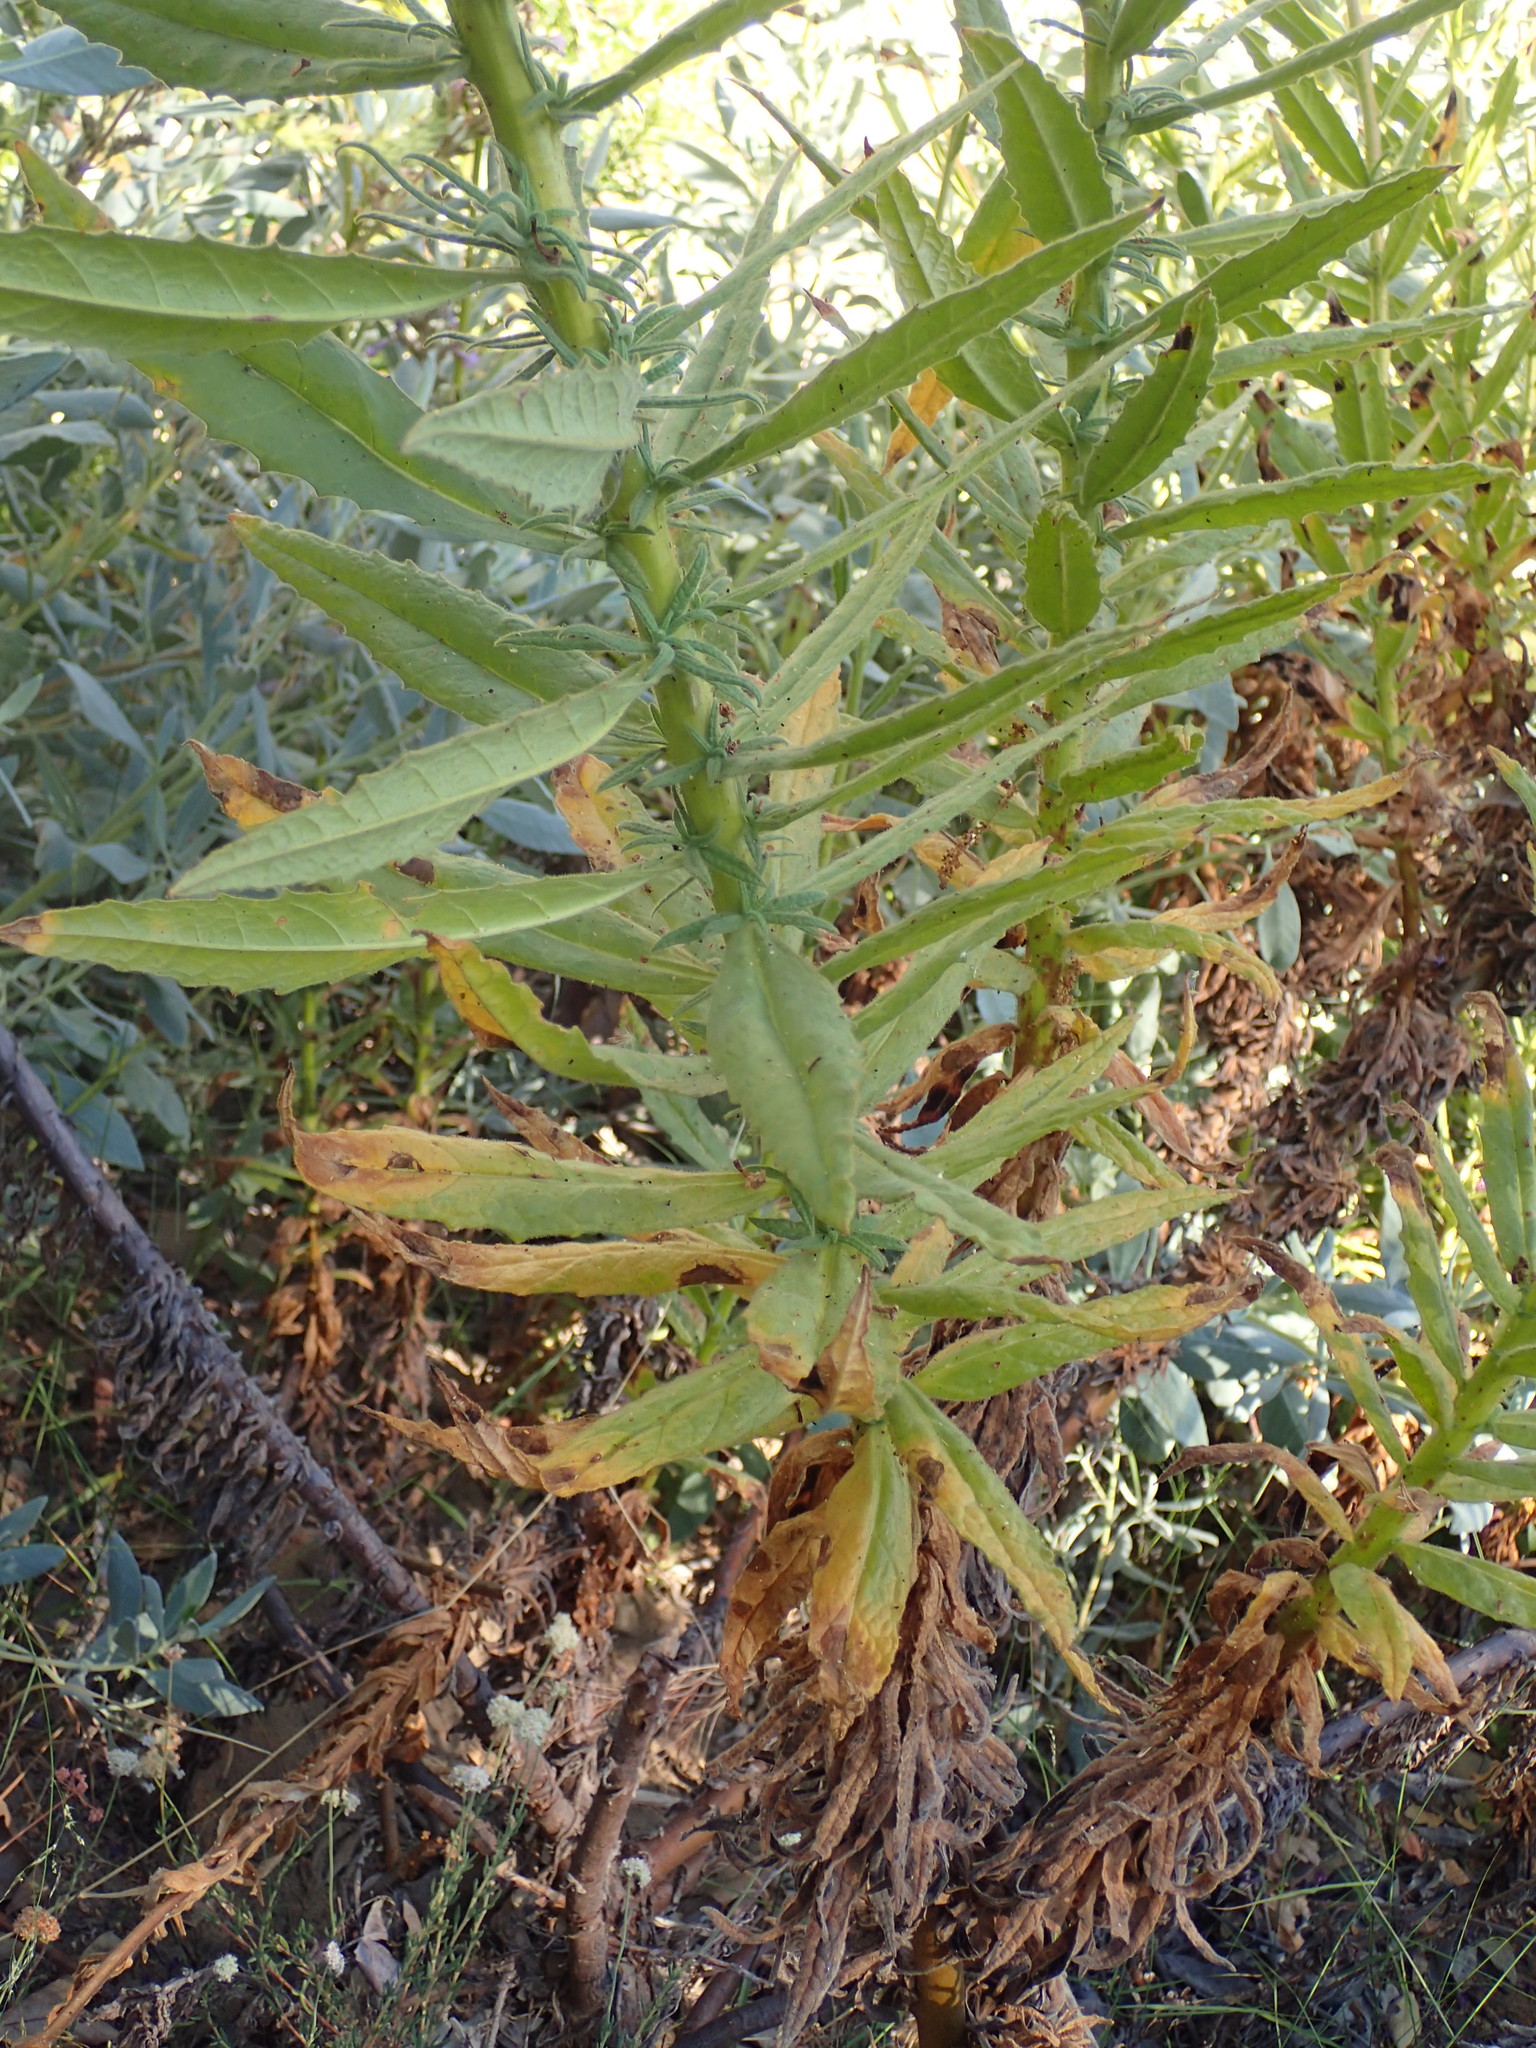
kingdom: Plantae
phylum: Tracheophyta
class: Magnoliopsida
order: Boraginales
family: Namaceae
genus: Turricula
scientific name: Turricula parryi
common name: Poodle-dog-bush
